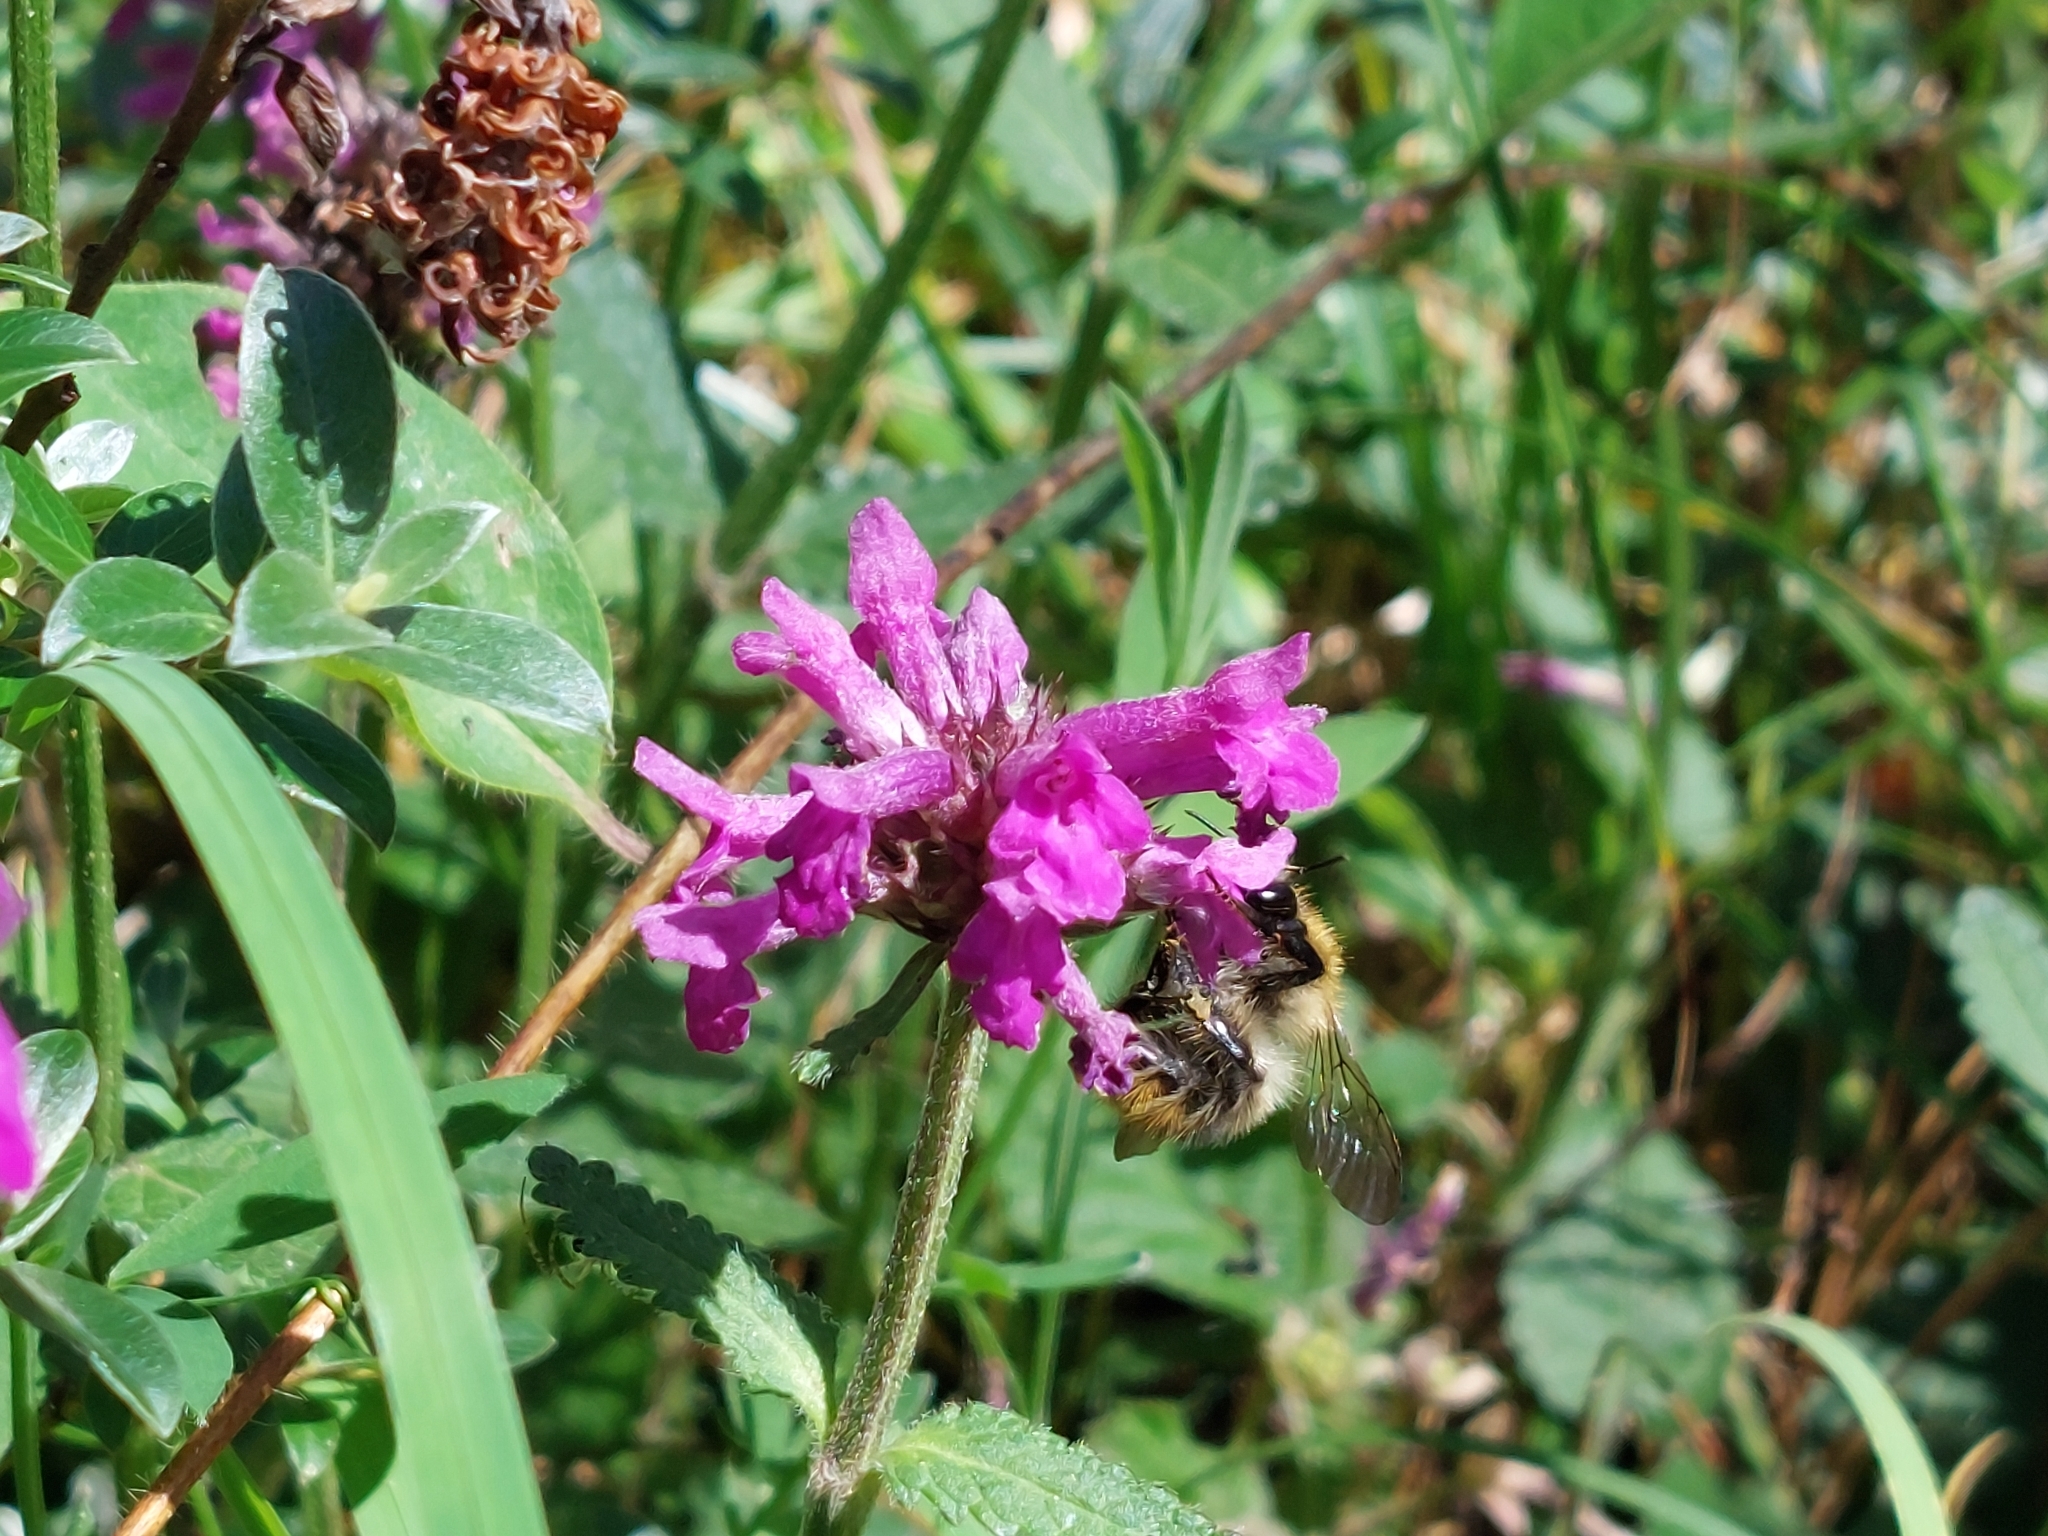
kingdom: Plantae
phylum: Tracheophyta
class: Magnoliopsida
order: Lamiales
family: Lamiaceae
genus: Betonica
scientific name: Betonica officinalis
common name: Bishop's-wort
